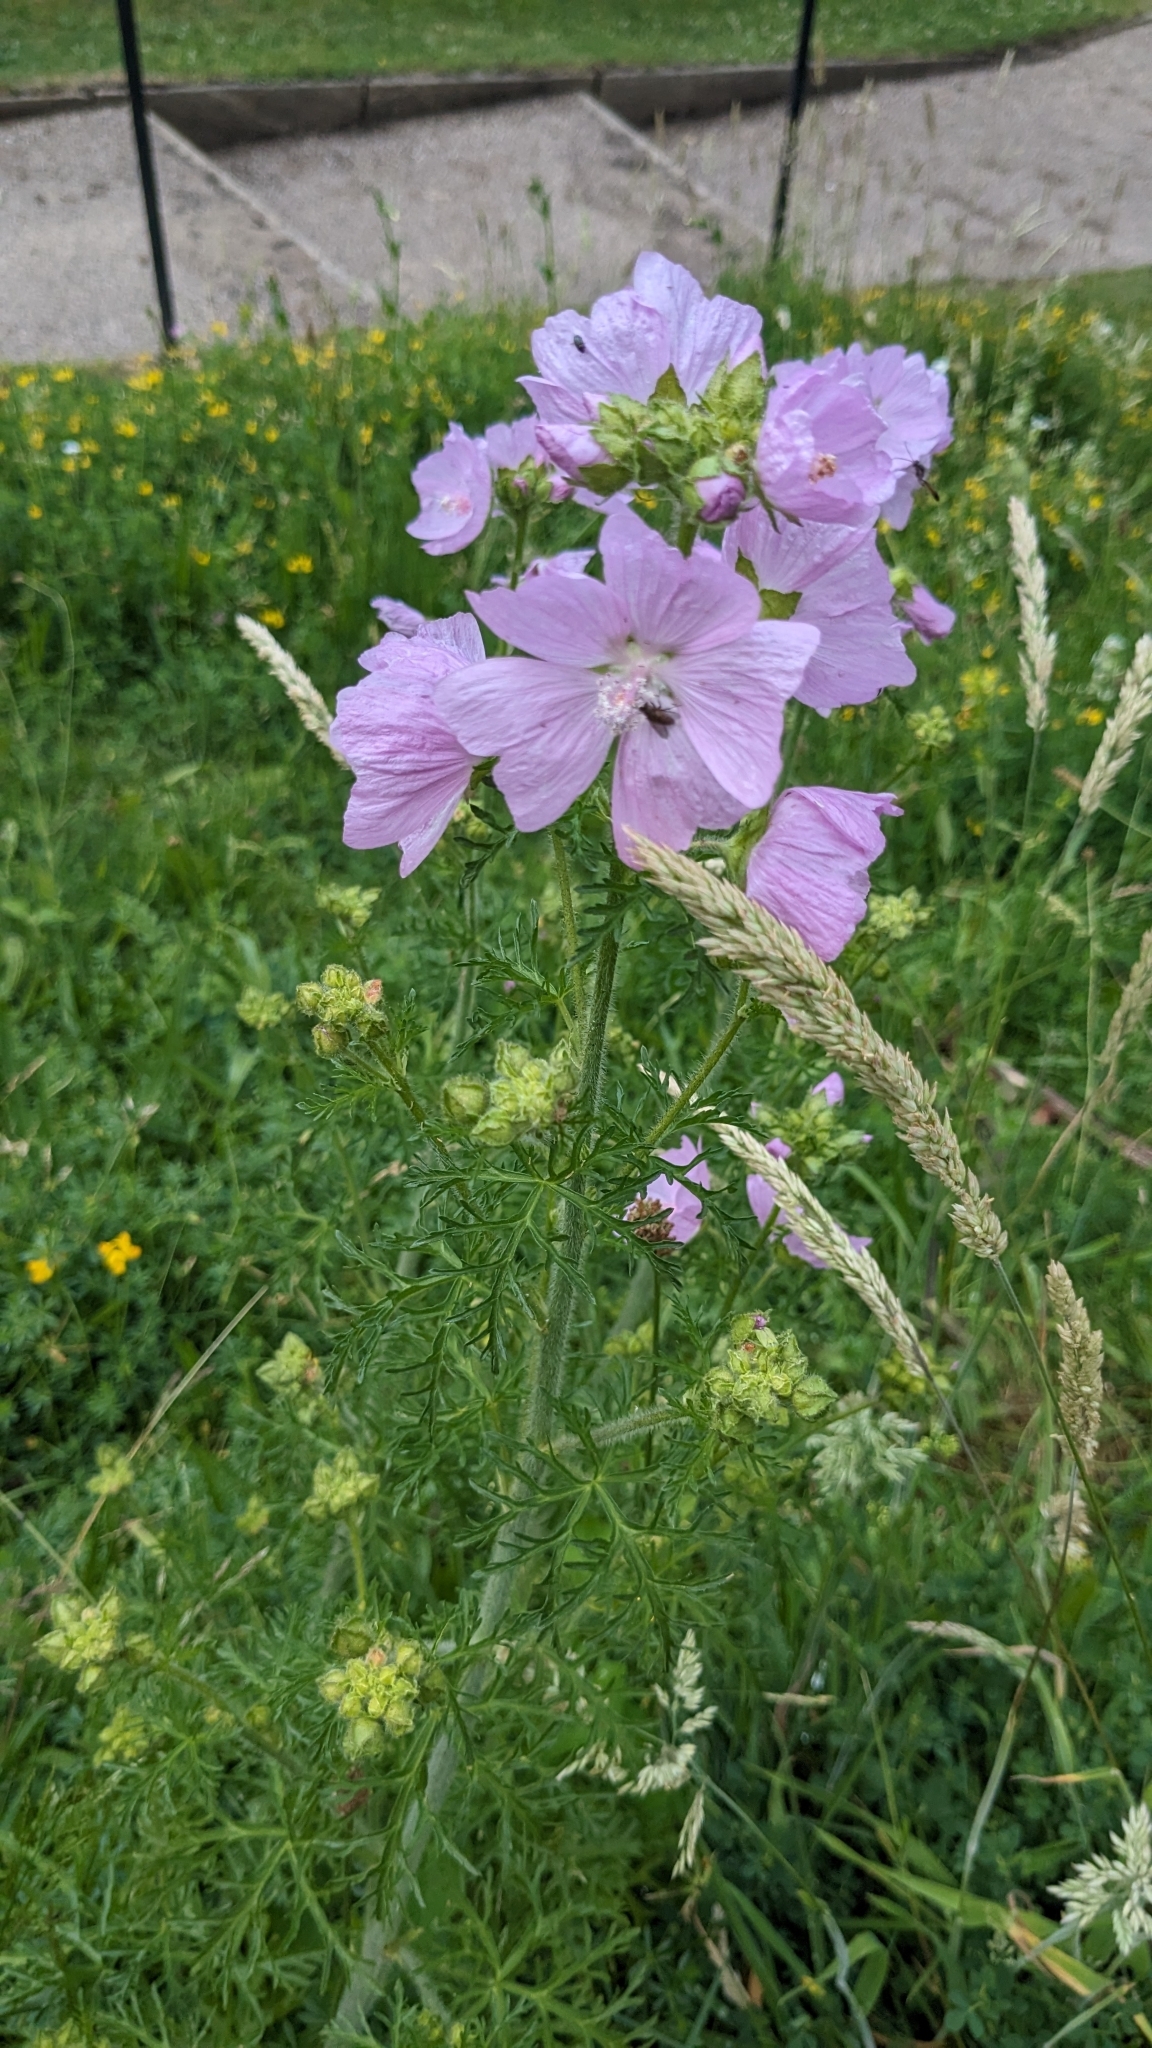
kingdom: Plantae
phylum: Tracheophyta
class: Magnoliopsida
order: Malvales
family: Malvaceae
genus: Malva
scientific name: Malva moschata
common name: Musk mallow
